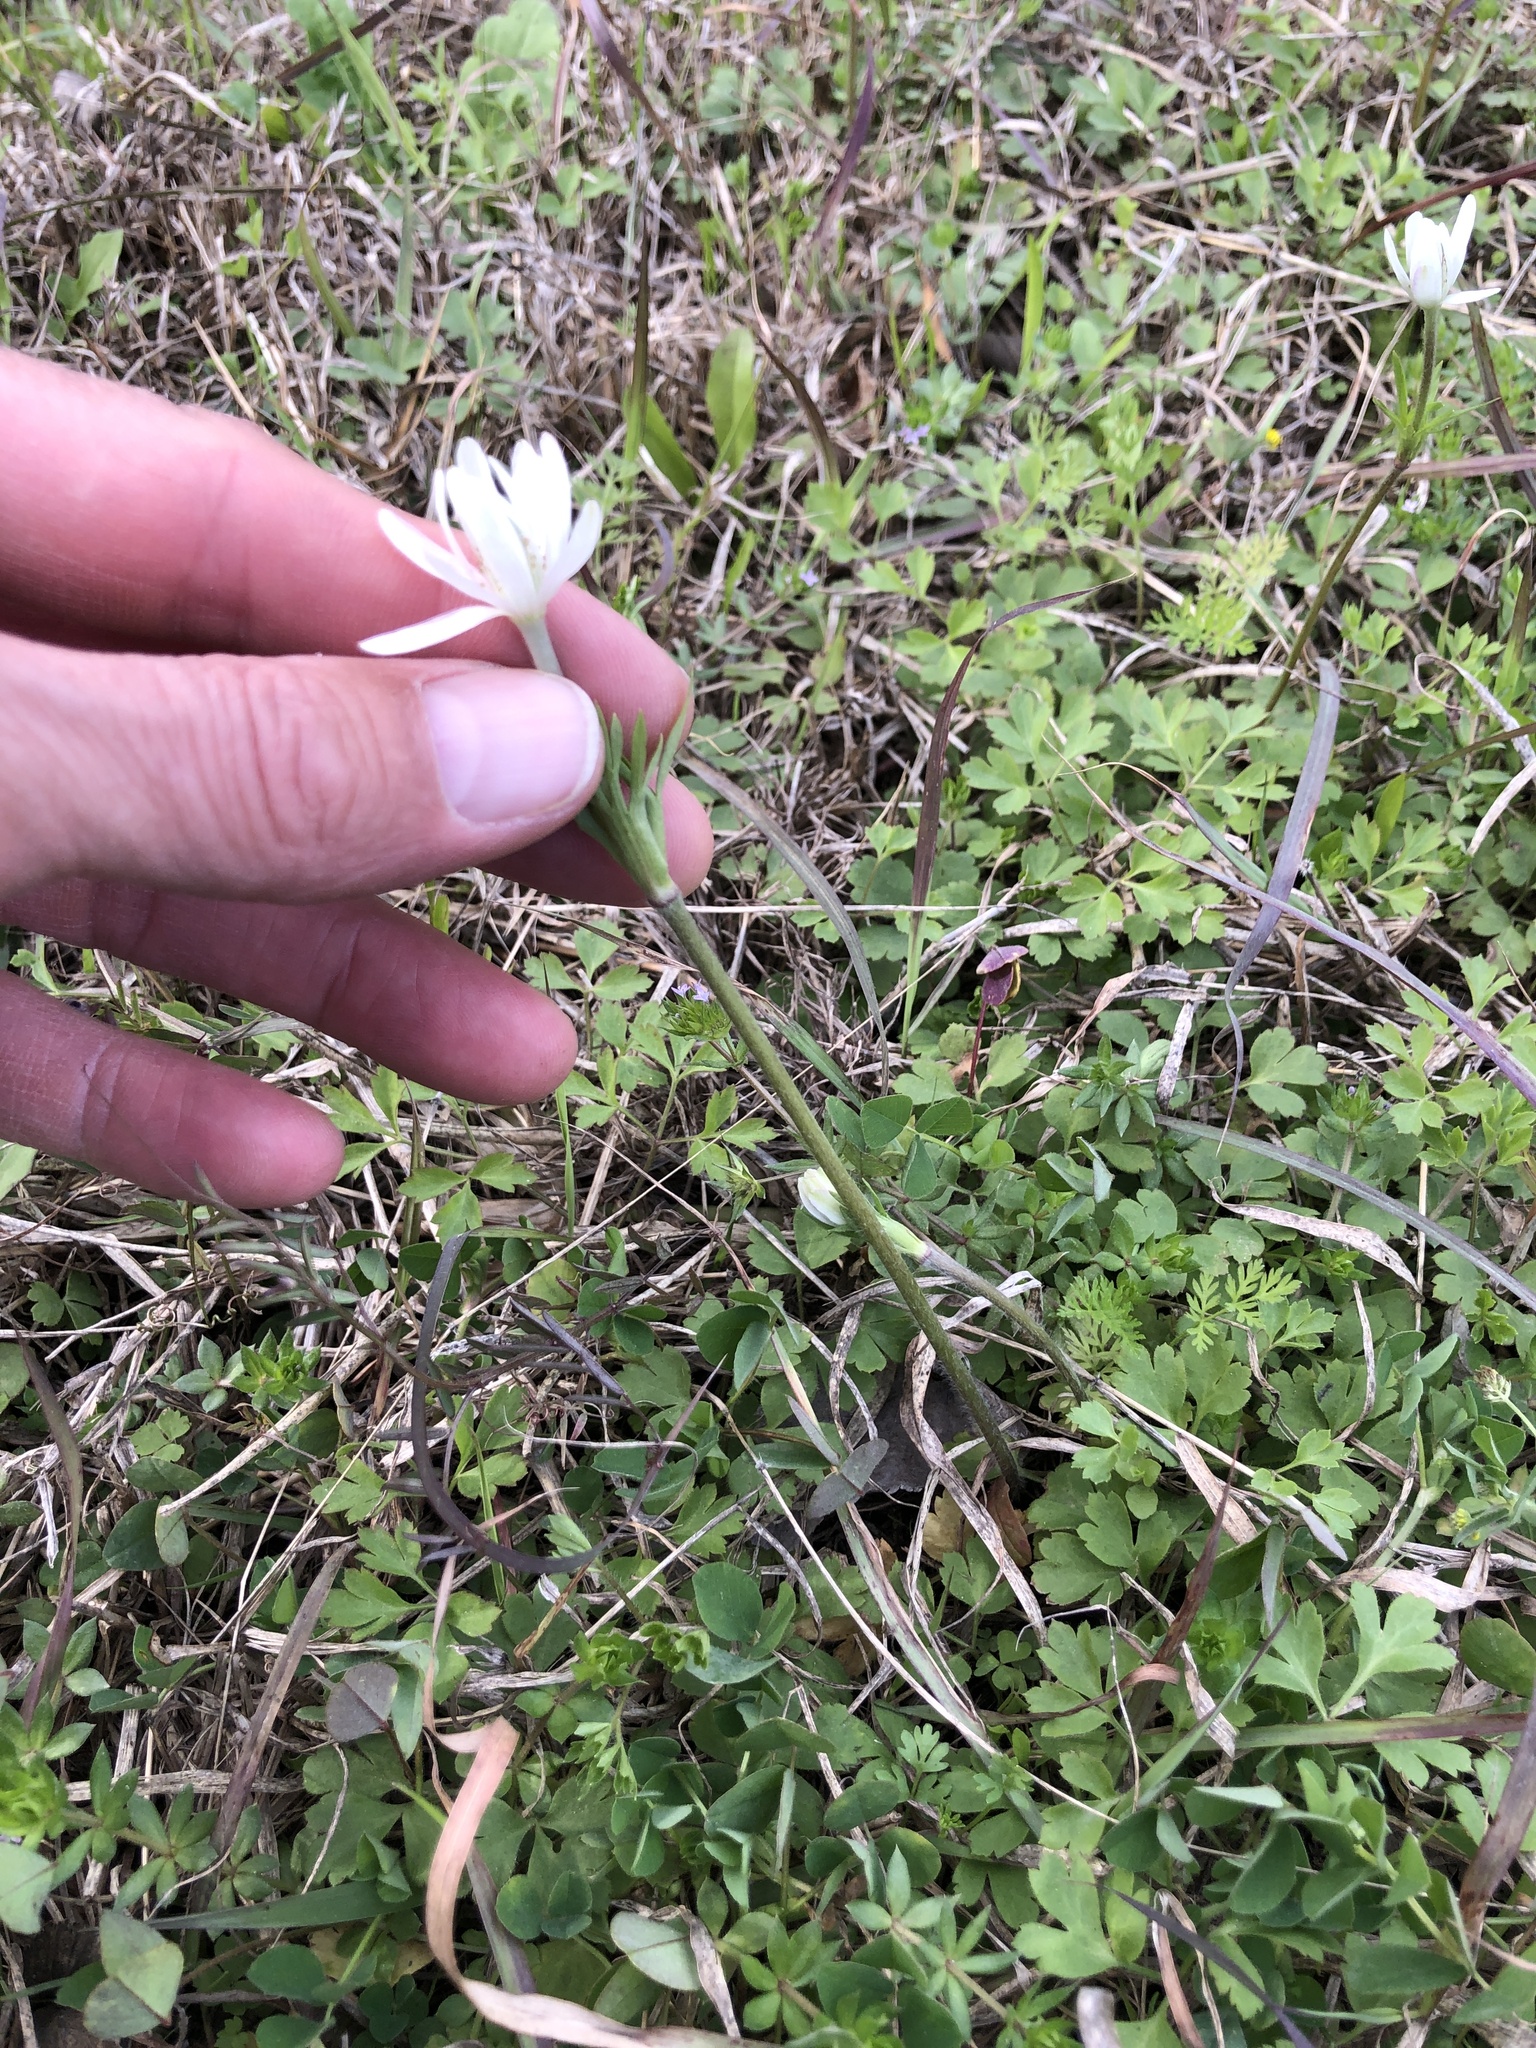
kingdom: Plantae
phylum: Tracheophyta
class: Magnoliopsida
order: Ranunculales
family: Ranunculaceae
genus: Anemone
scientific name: Anemone berlandieri
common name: Ten-petal anemone
